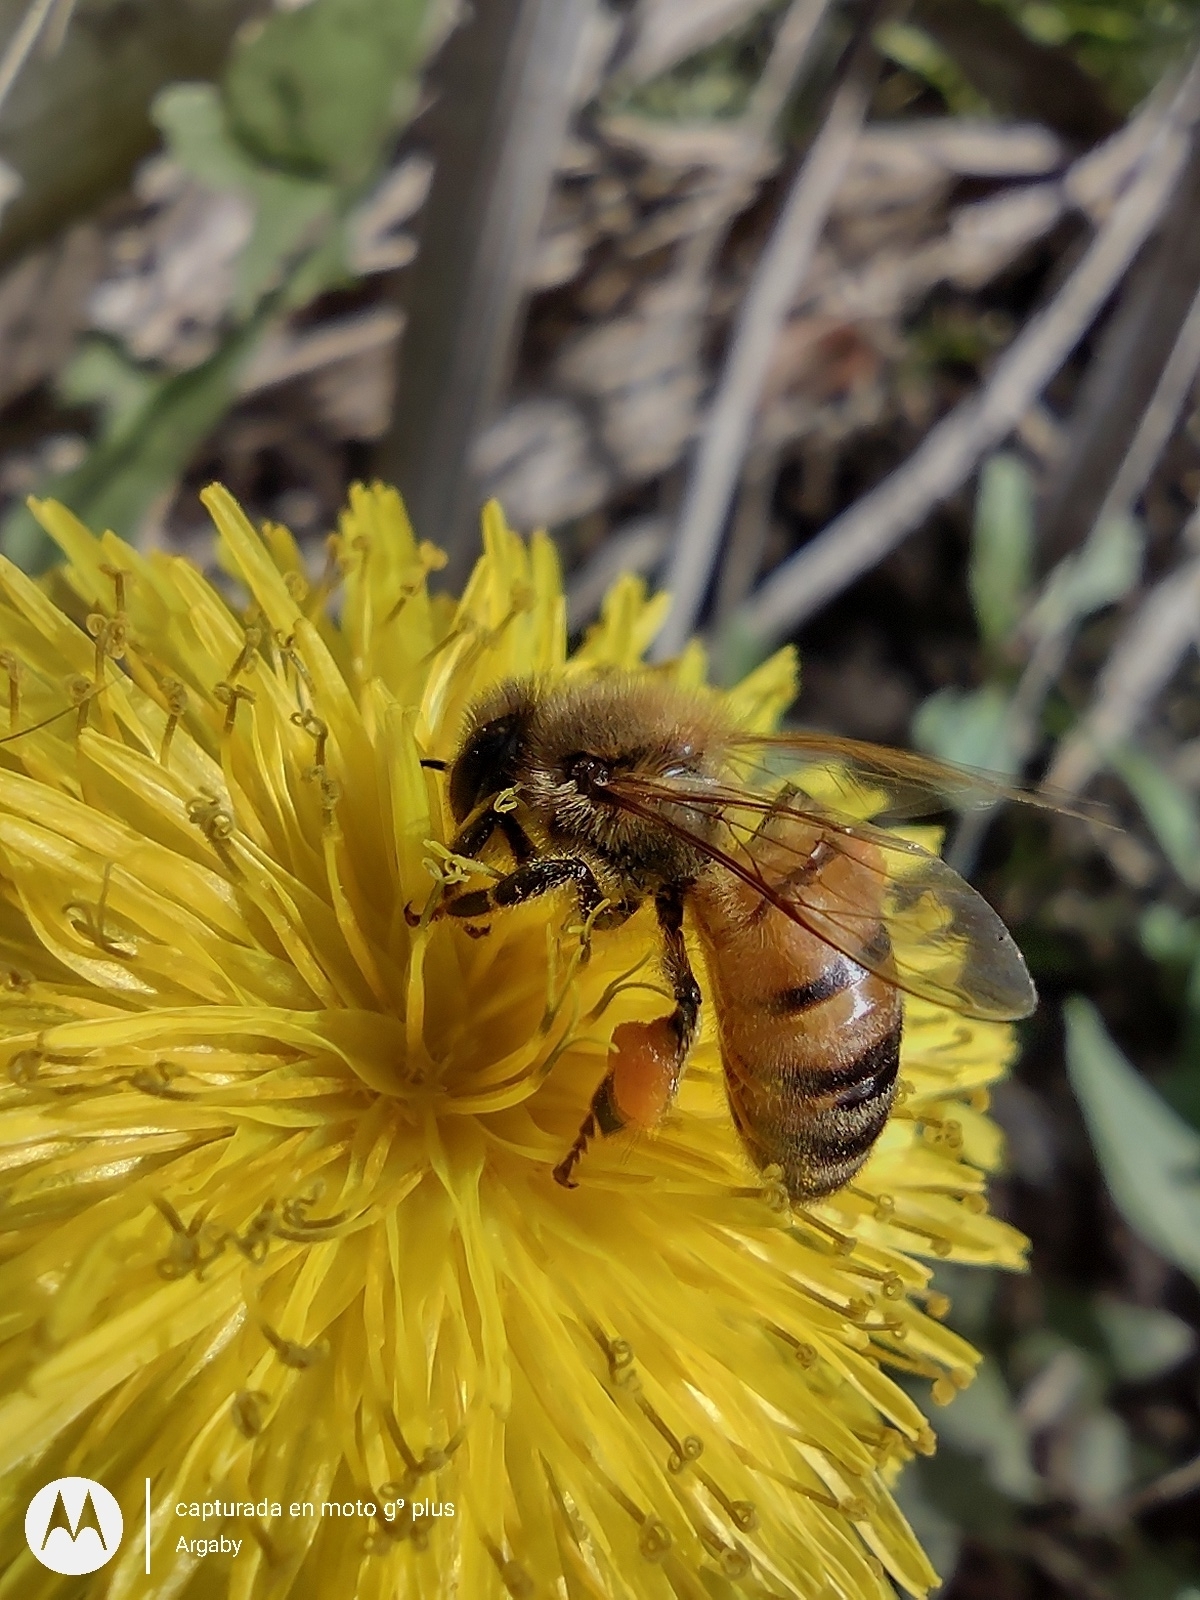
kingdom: Animalia
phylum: Arthropoda
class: Insecta
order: Hymenoptera
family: Apidae
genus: Apis
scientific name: Apis mellifera
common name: Honey bee
